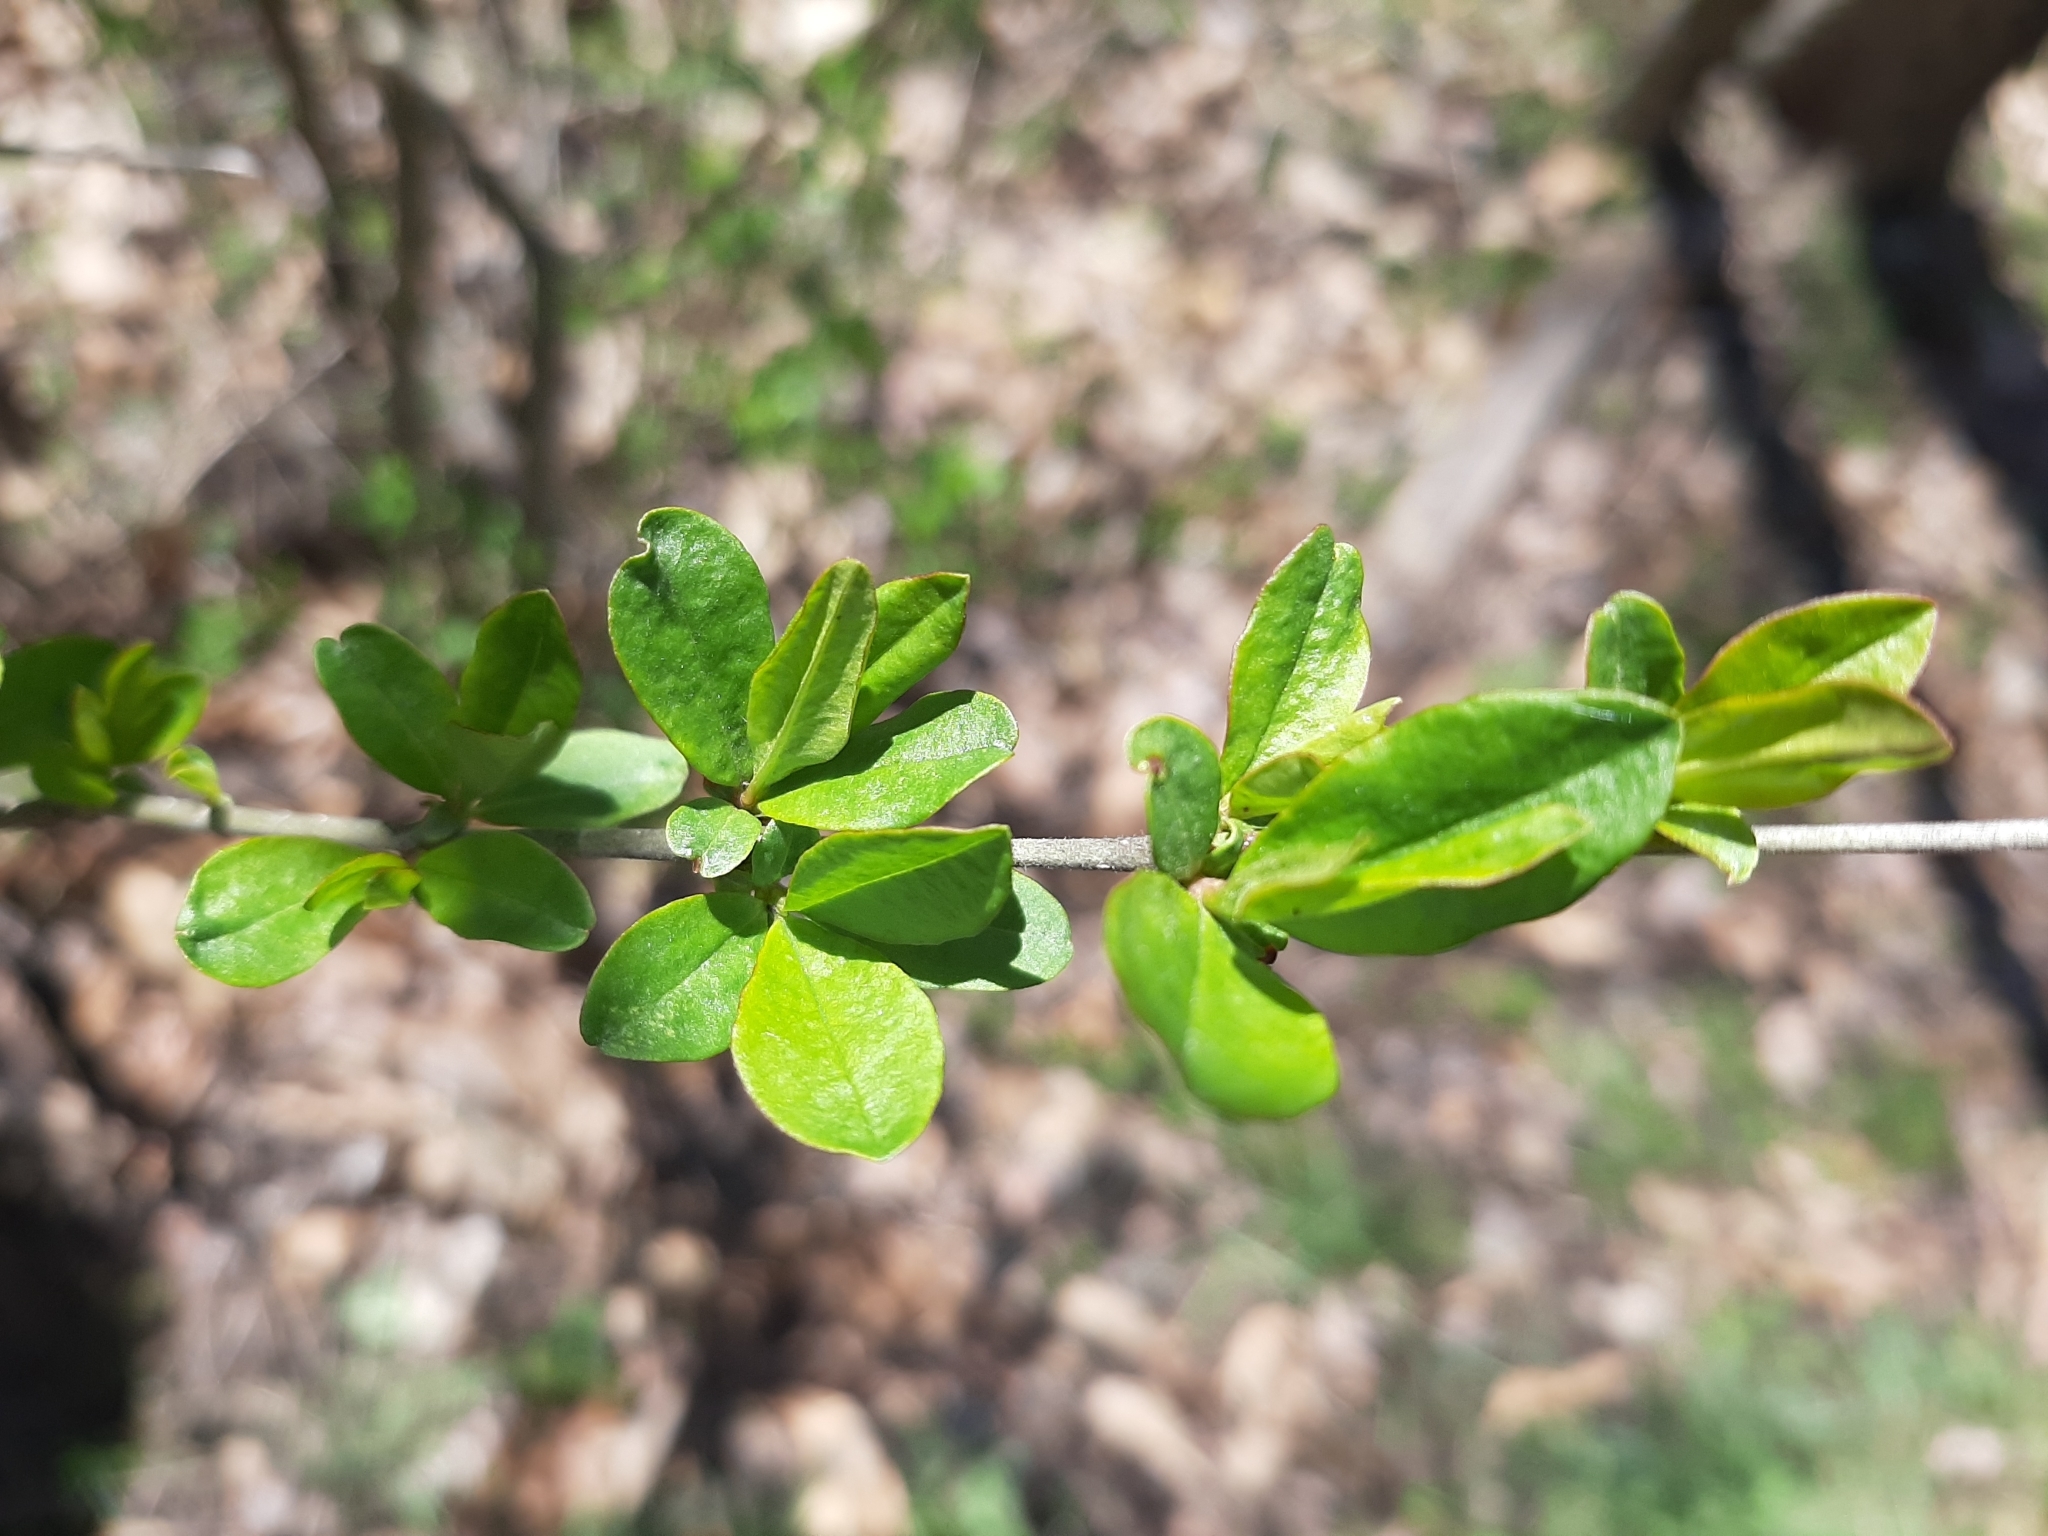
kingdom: Plantae
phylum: Tracheophyta
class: Magnoliopsida
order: Lamiales
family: Oleaceae
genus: Ligustrum
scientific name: Ligustrum obtusifolium
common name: Border privet
